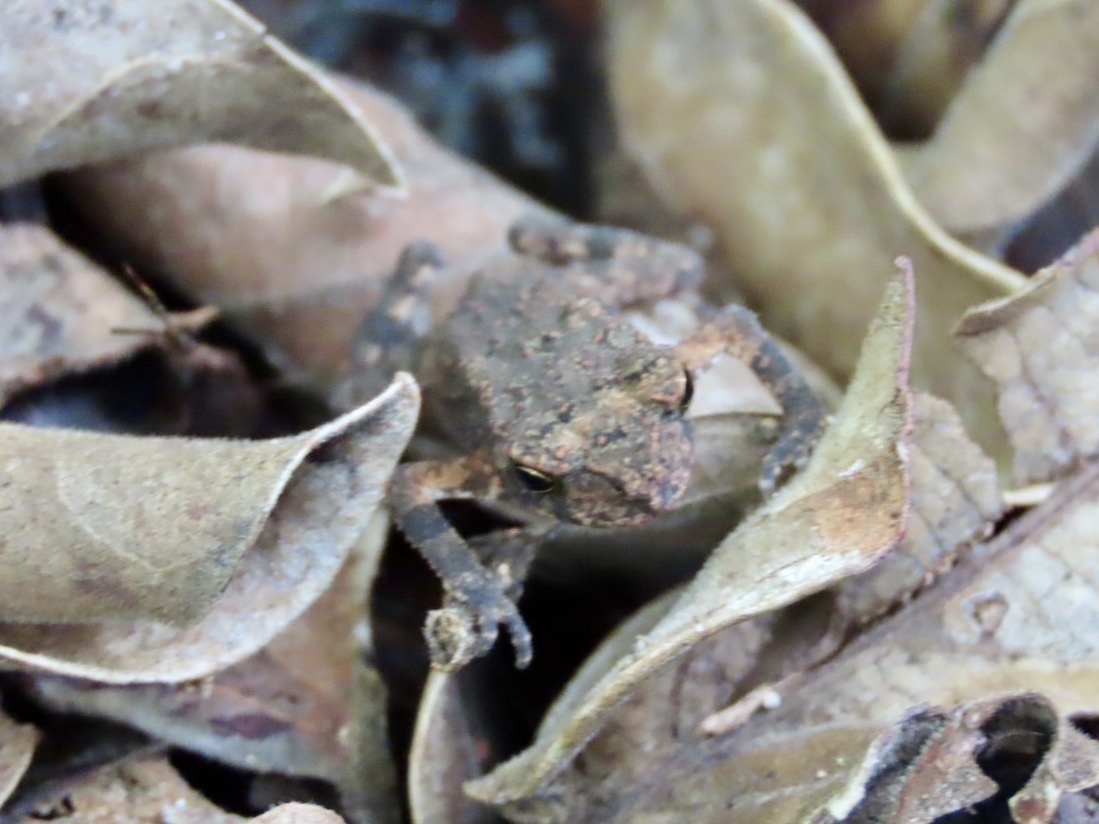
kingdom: Animalia
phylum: Chordata
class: Amphibia
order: Anura
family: Bufonidae
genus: Duttaphrynus
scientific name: Duttaphrynus melanostictus
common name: Common sunda toad
